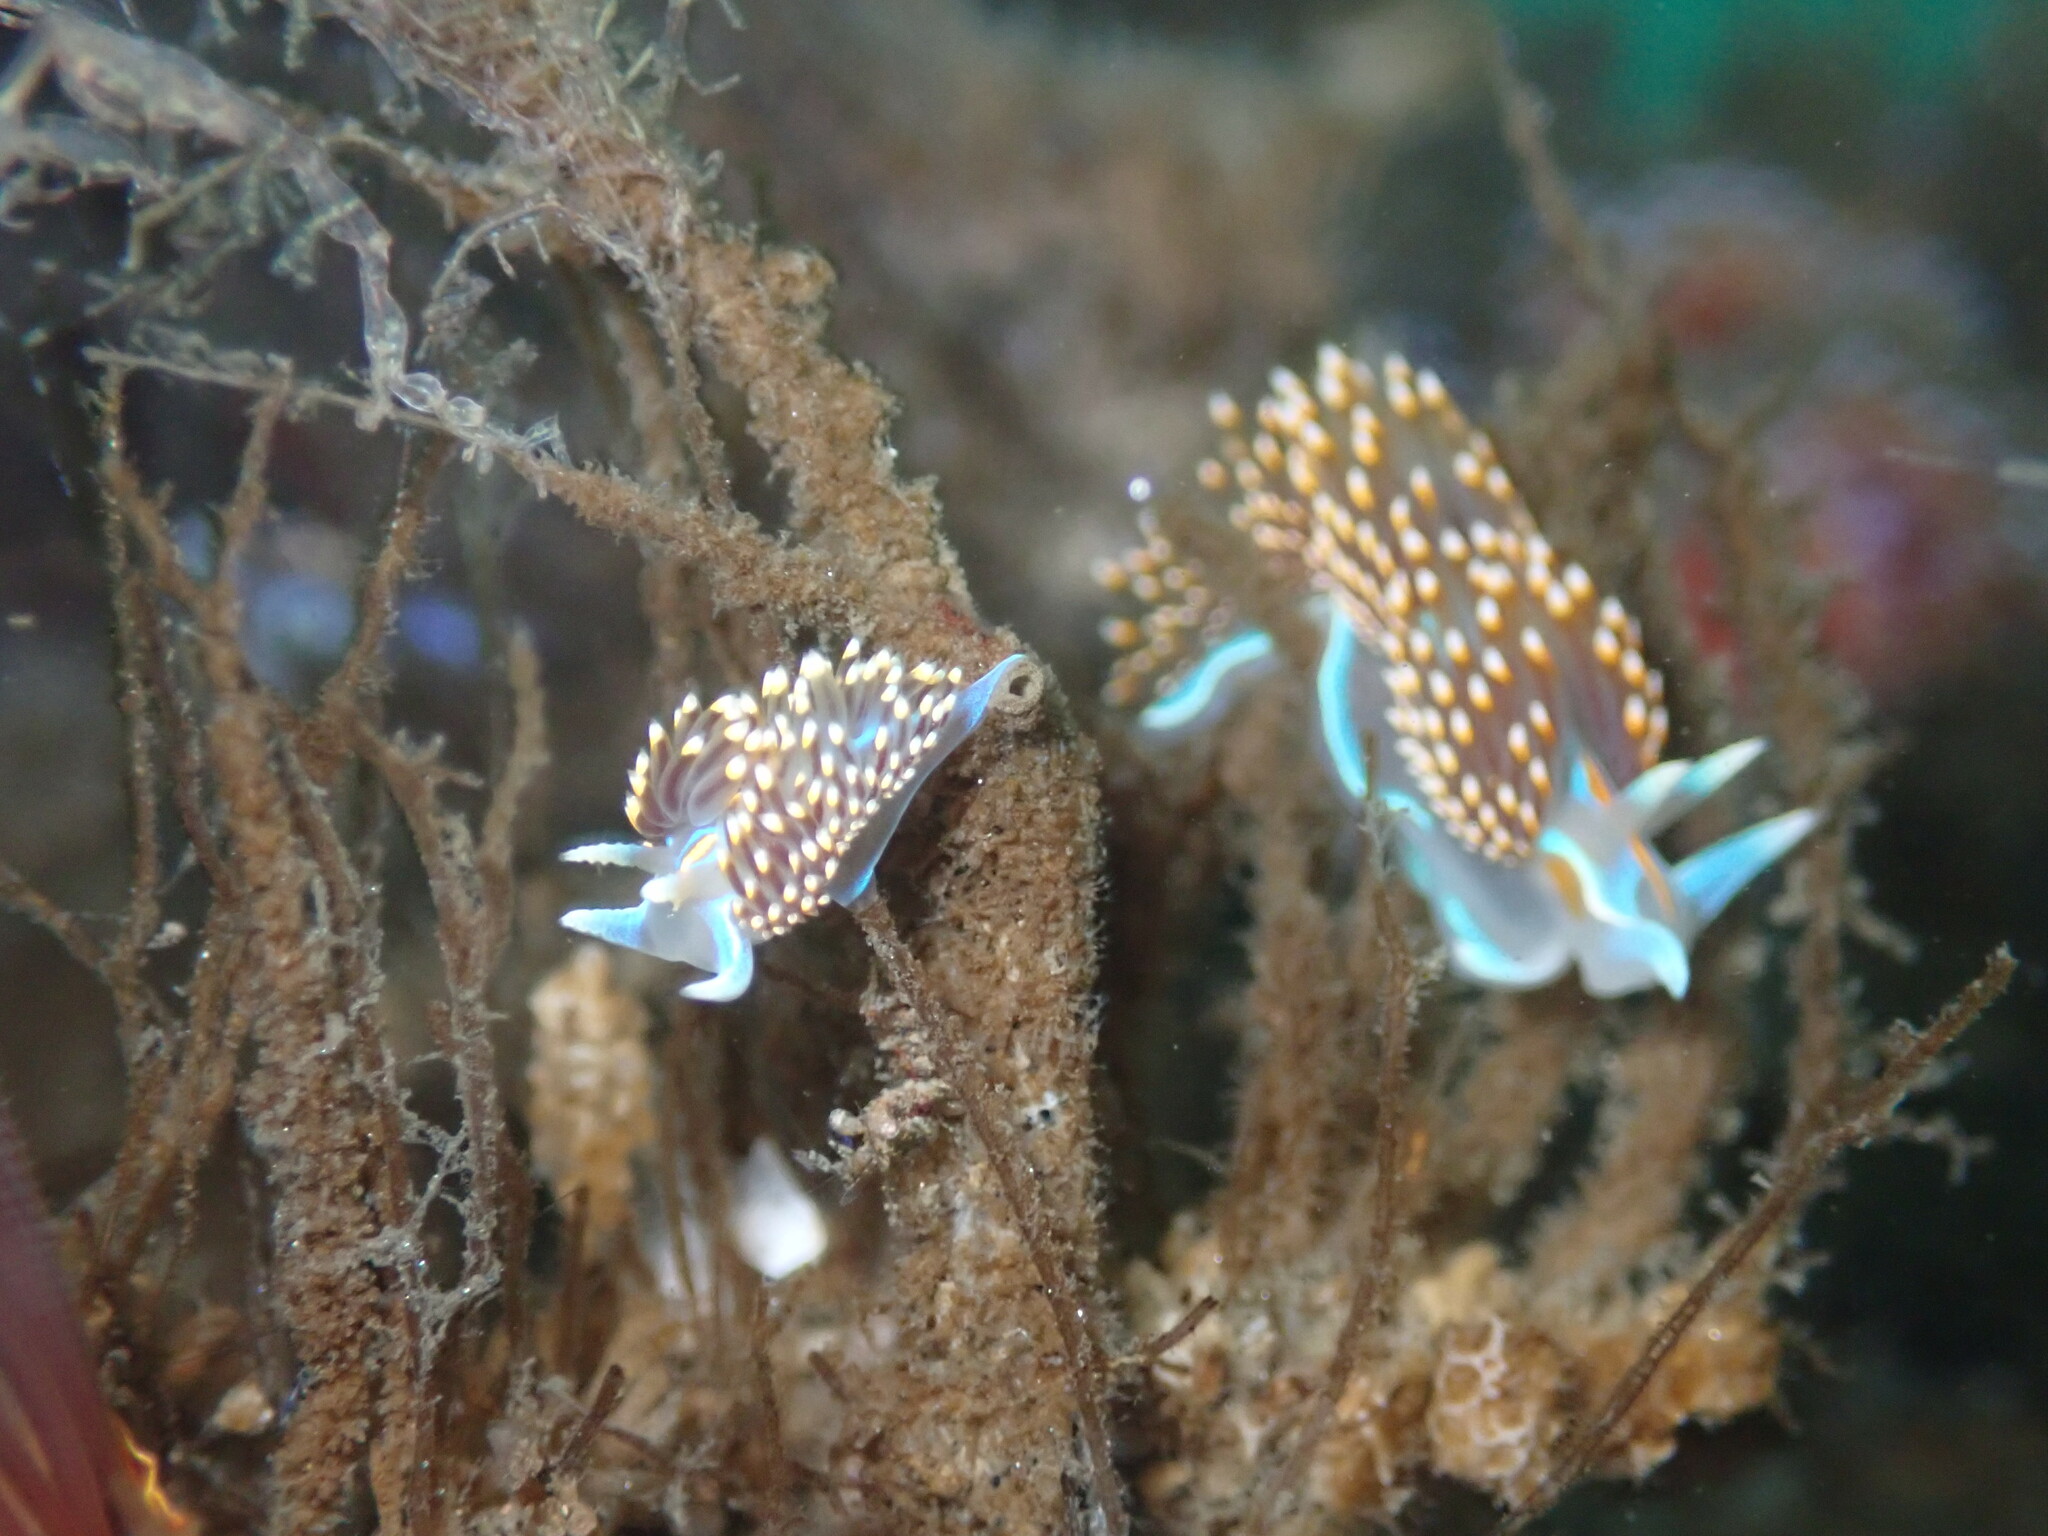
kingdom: Animalia
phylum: Mollusca
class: Gastropoda
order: Nudibranchia
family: Myrrhinidae
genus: Hermissenda
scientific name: Hermissenda opalescens
